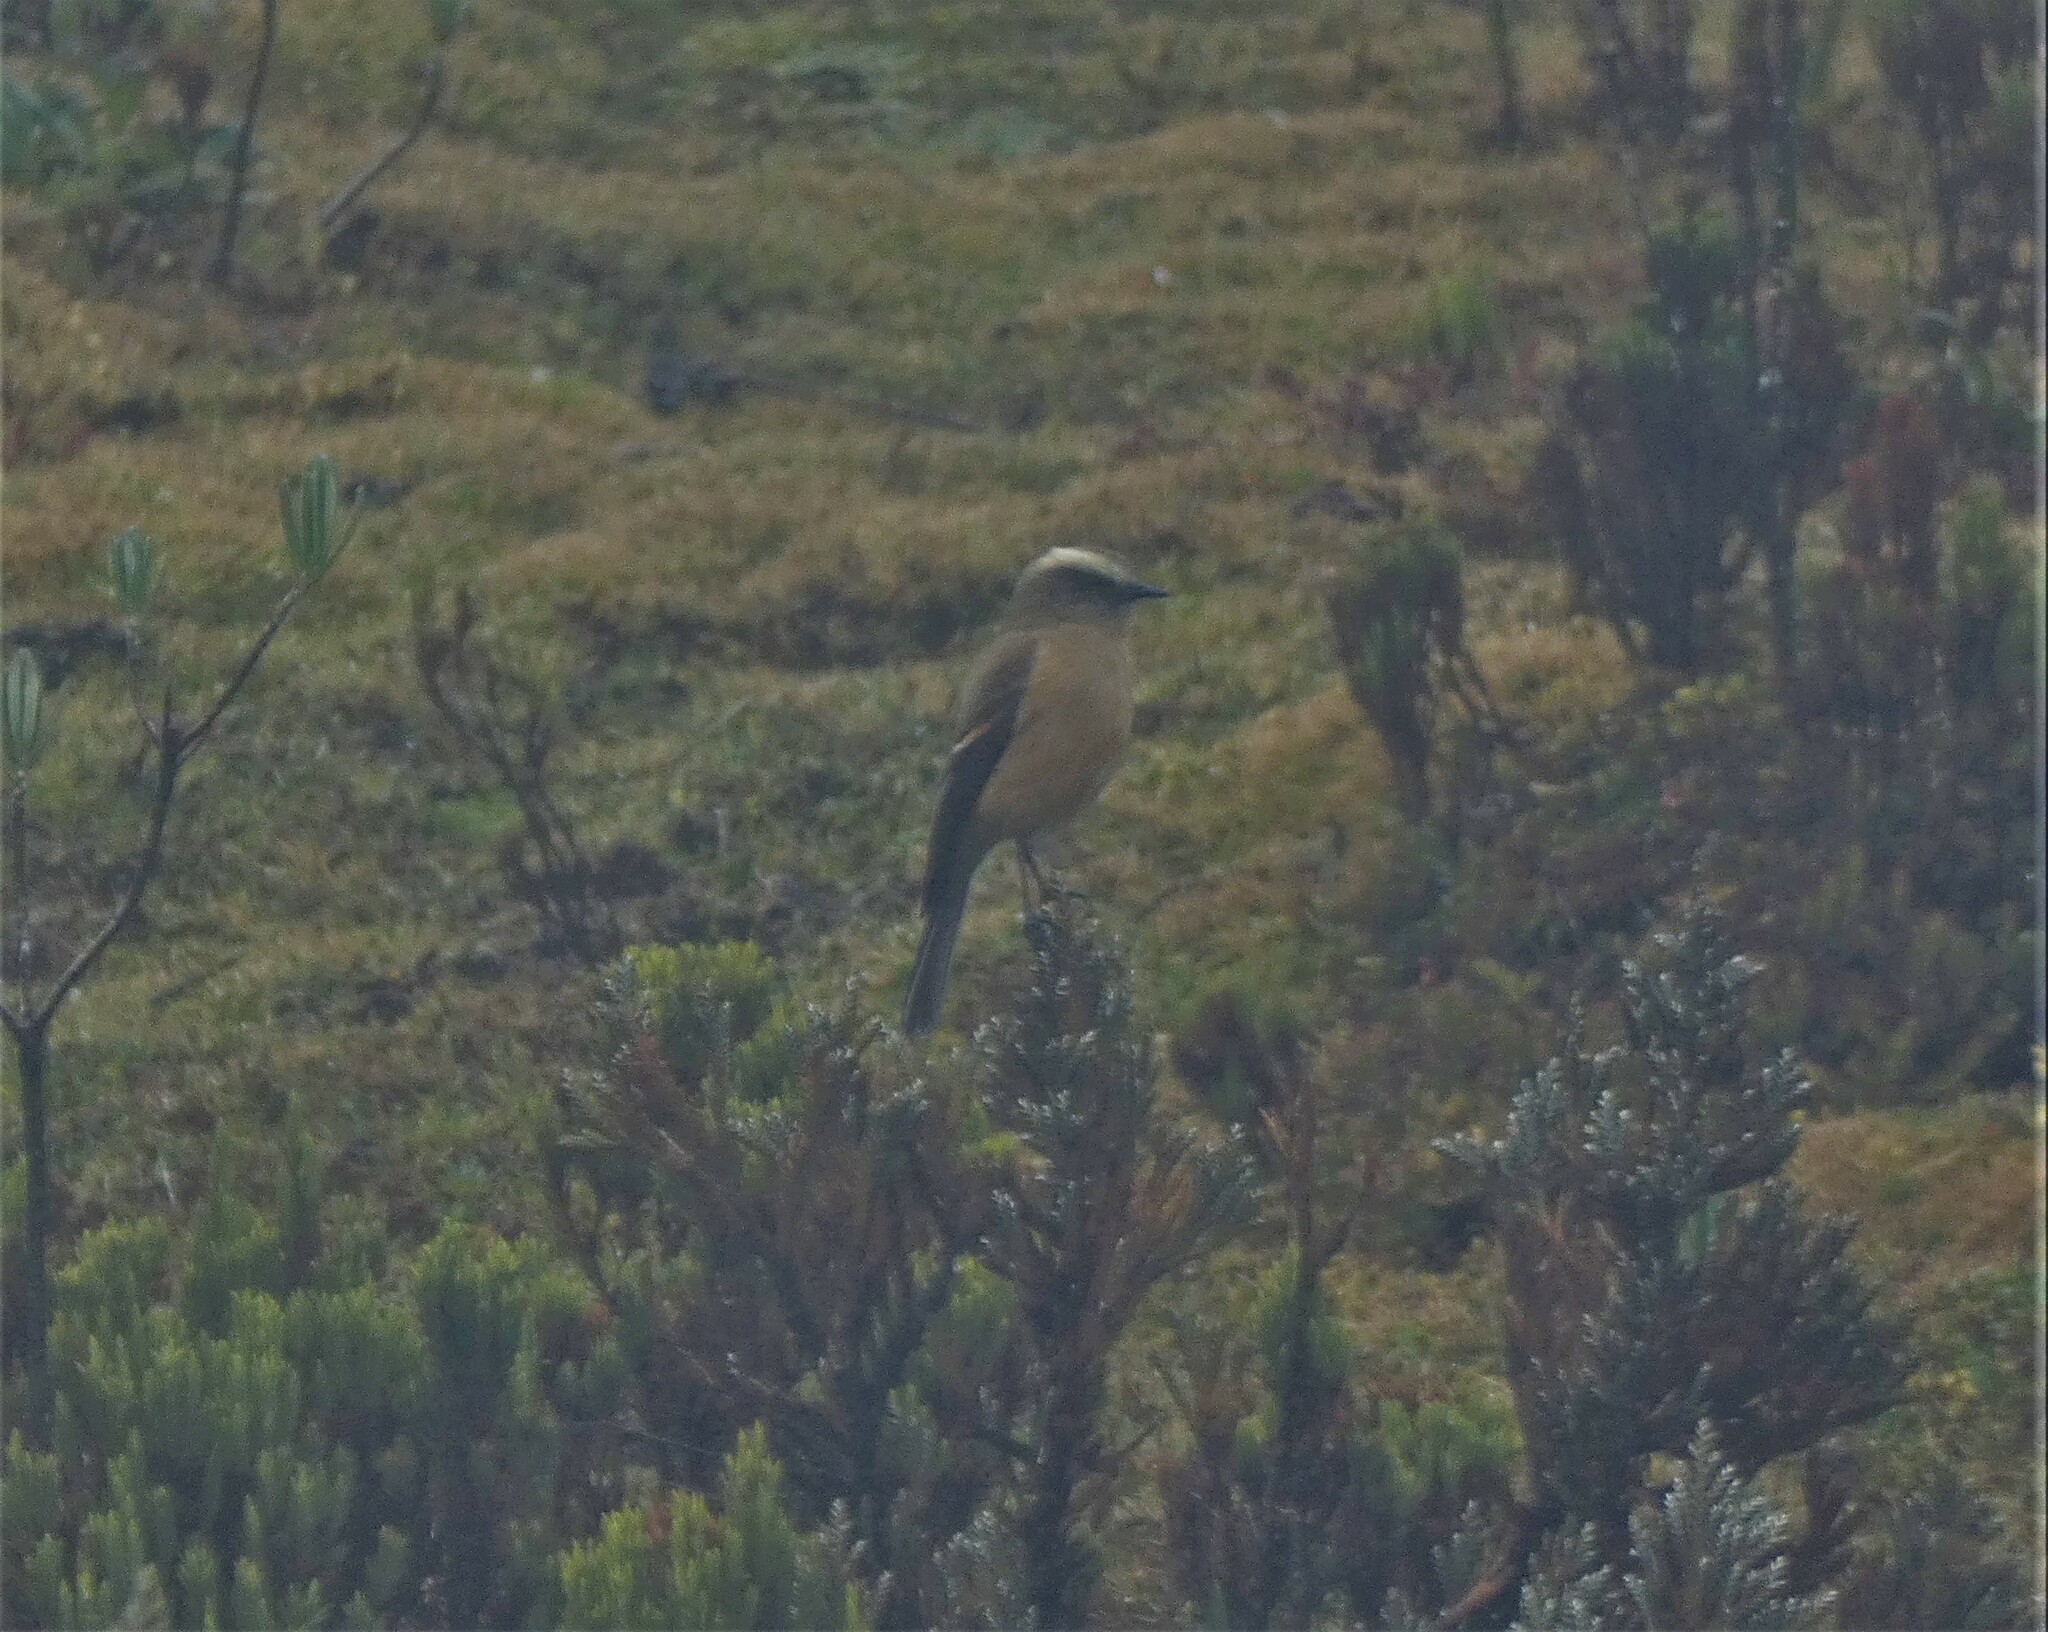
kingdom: Animalia
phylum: Chordata
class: Aves
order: Passeriformes
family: Tyrannidae
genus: Ochthoeca
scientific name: Ochthoeca fumicolor
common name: Brown-backed chat-tyrant
